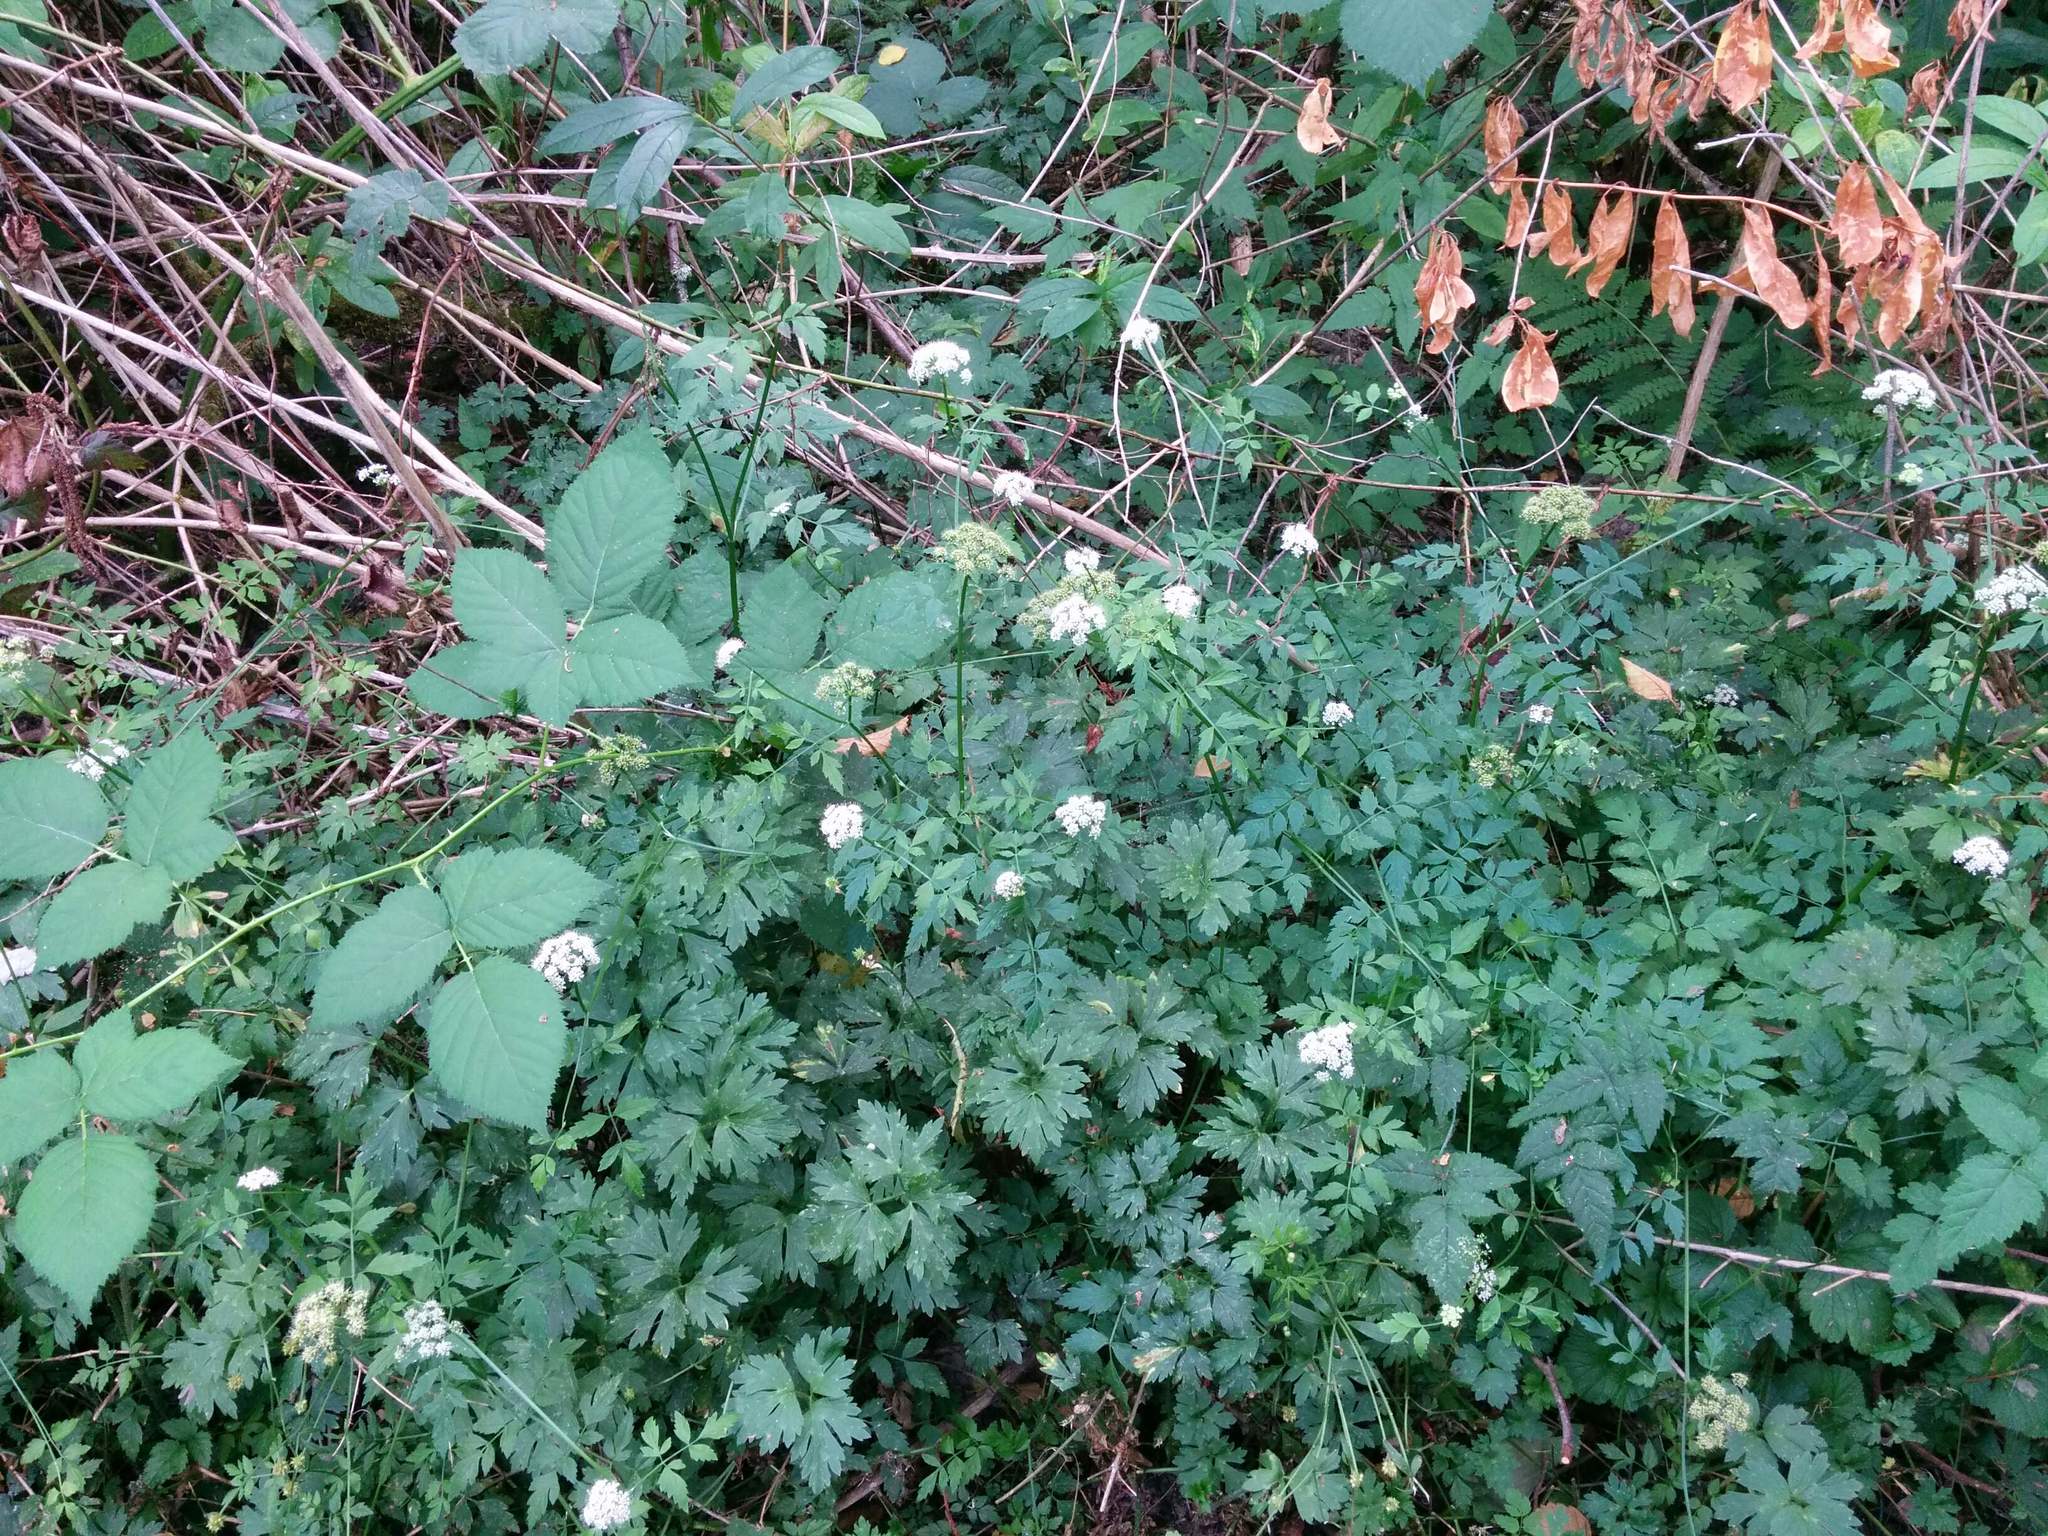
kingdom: Plantae
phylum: Tracheophyta
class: Magnoliopsida
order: Apiales
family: Apiaceae
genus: Oenanthe
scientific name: Oenanthe sarmentosa
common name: American water-parsley
